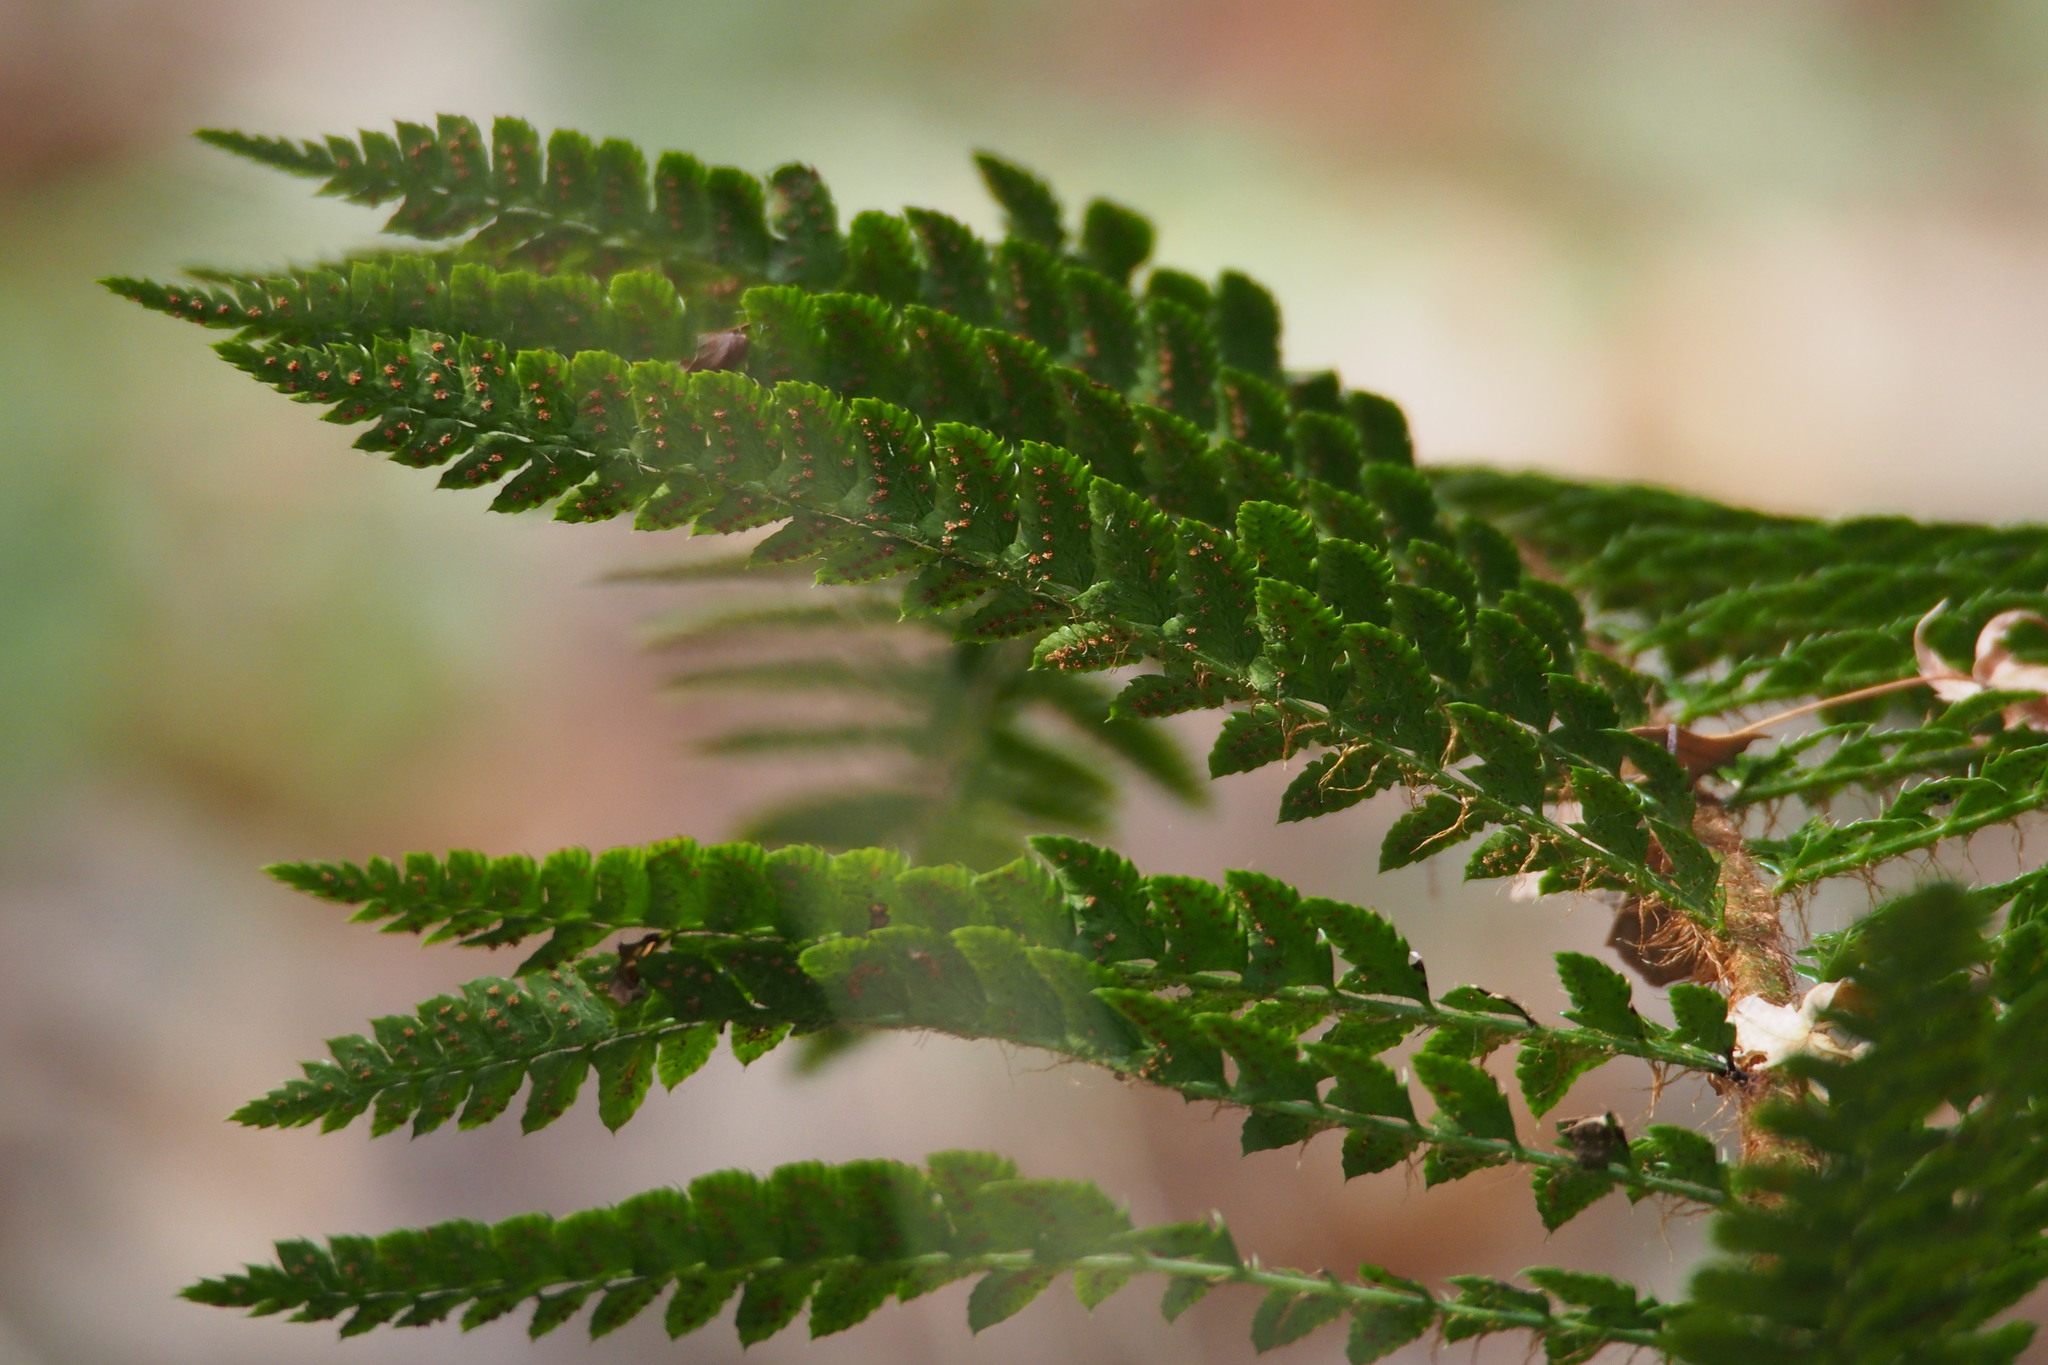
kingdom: Plantae
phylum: Tracheophyta
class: Polypodiopsida
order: Polypodiales
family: Dryopteridaceae
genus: Polystichum
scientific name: Polystichum luctuosum
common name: Korean rockfern
